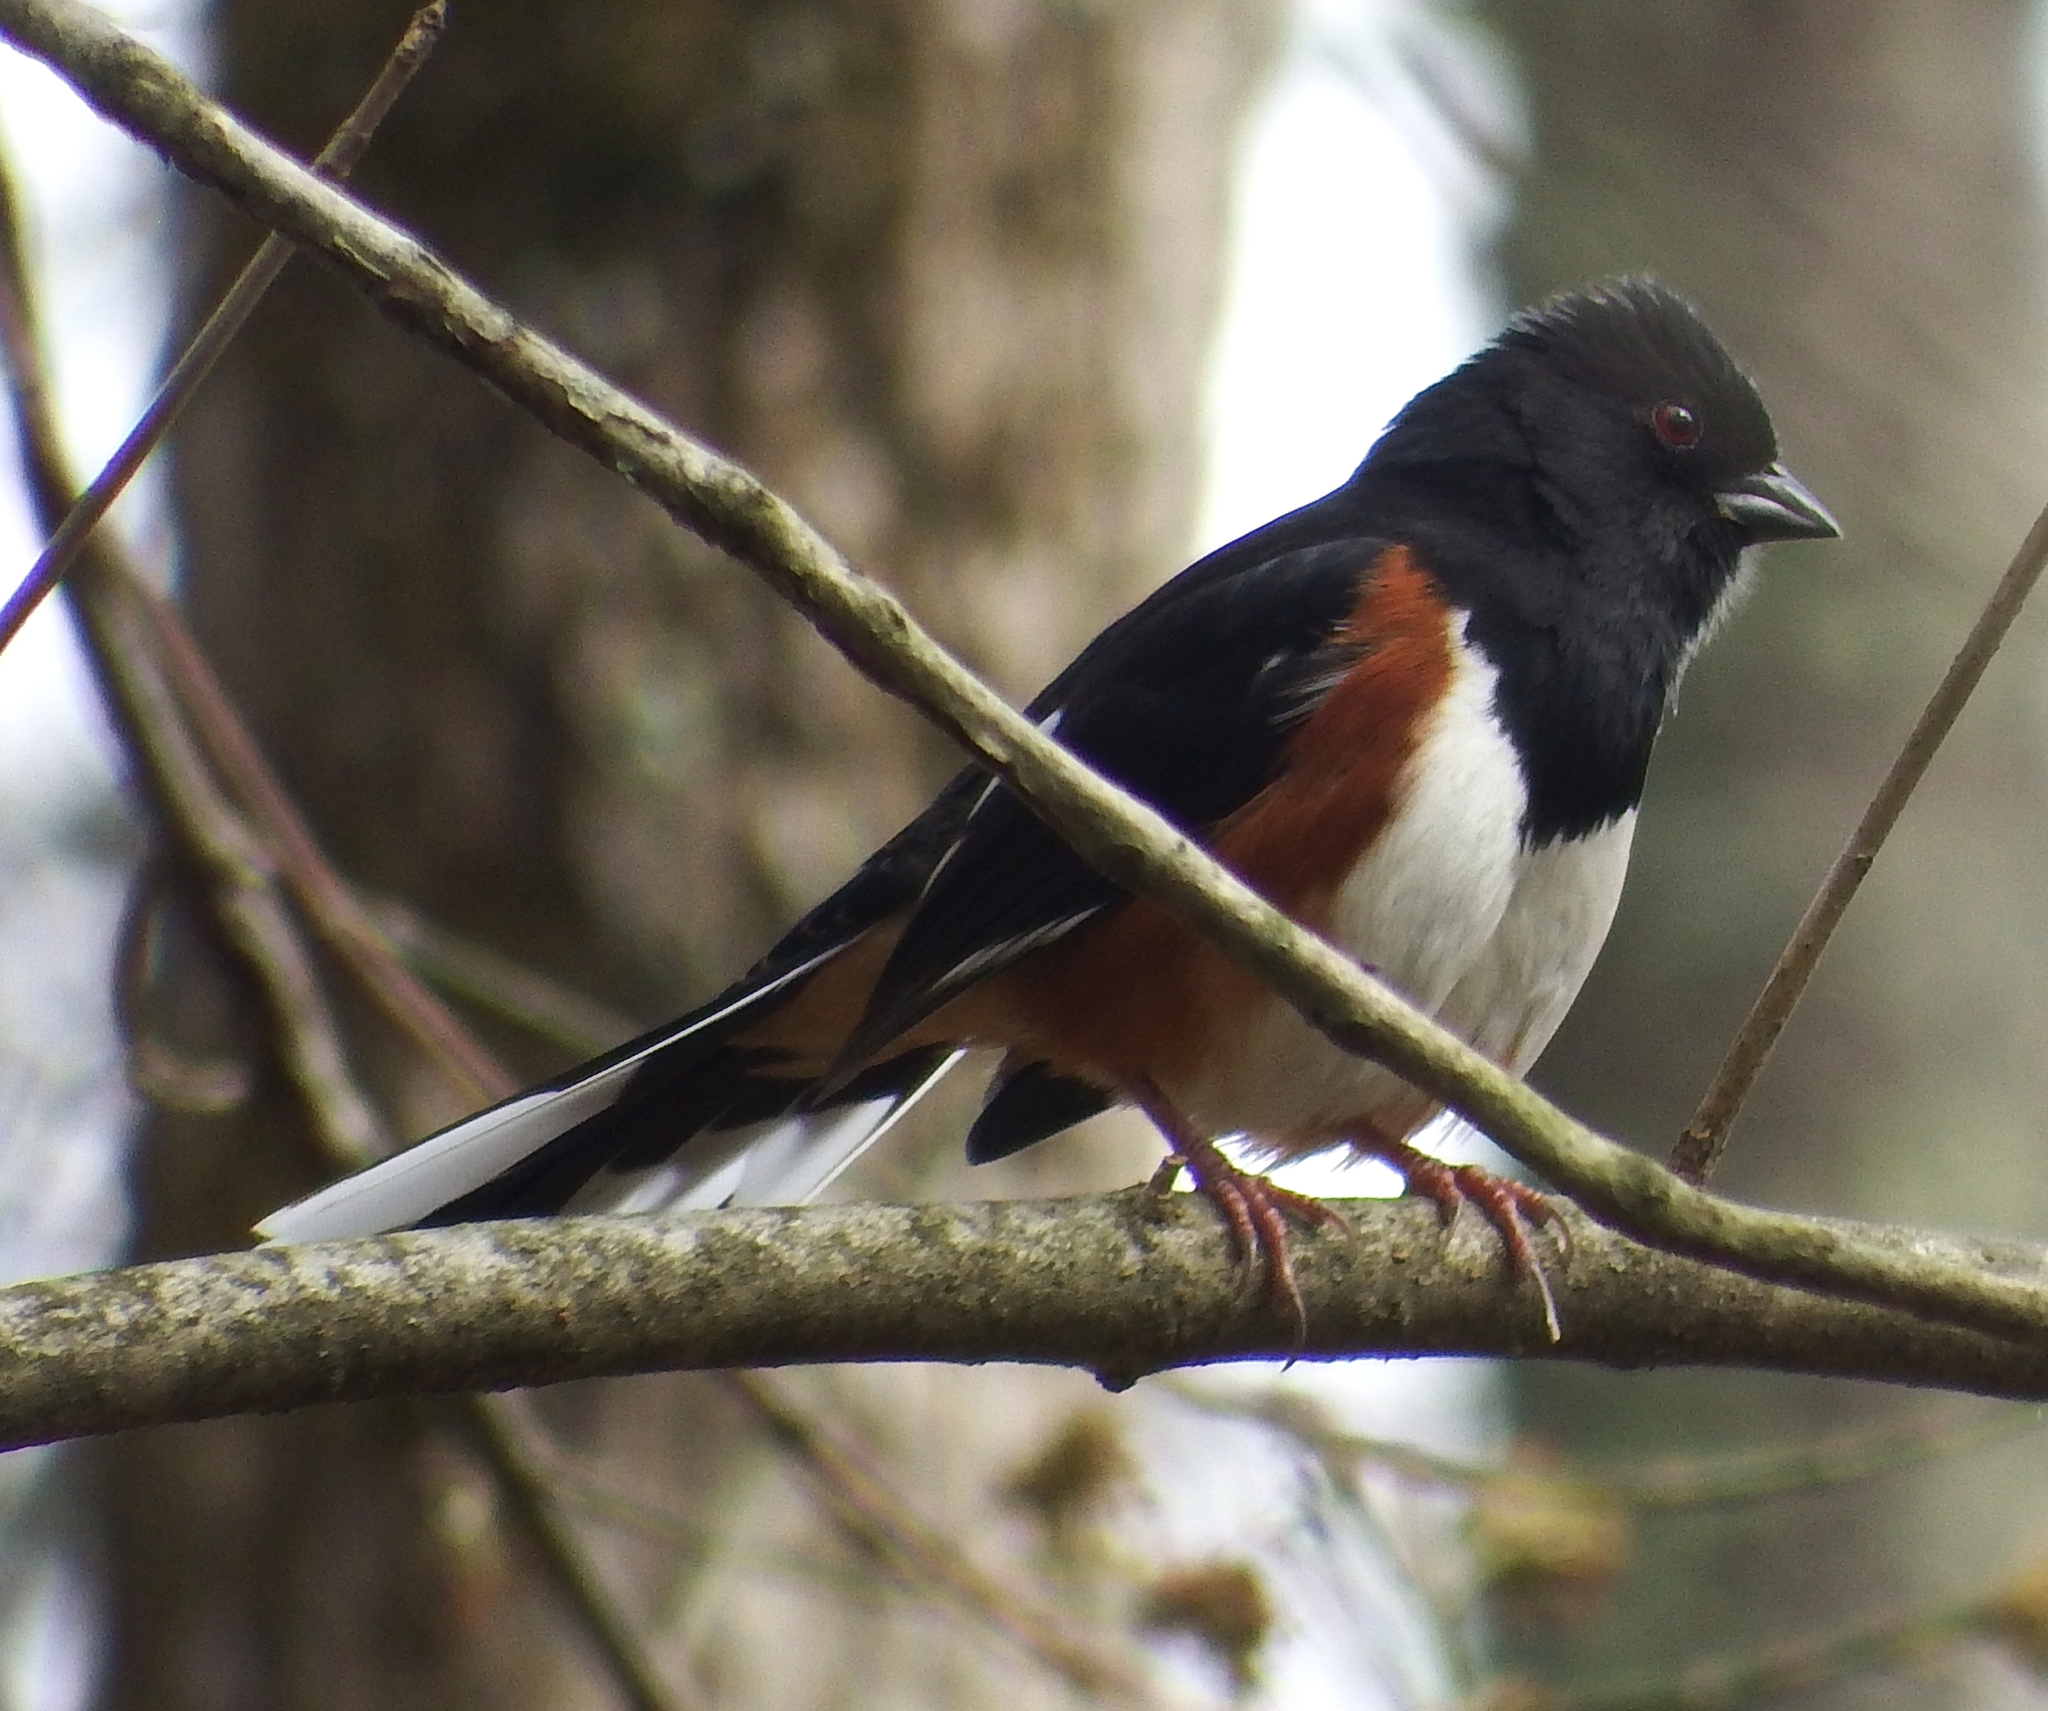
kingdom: Animalia
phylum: Chordata
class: Aves
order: Passeriformes
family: Passerellidae
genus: Pipilo
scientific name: Pipilo erythrophthalmus
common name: Eastern towhee
